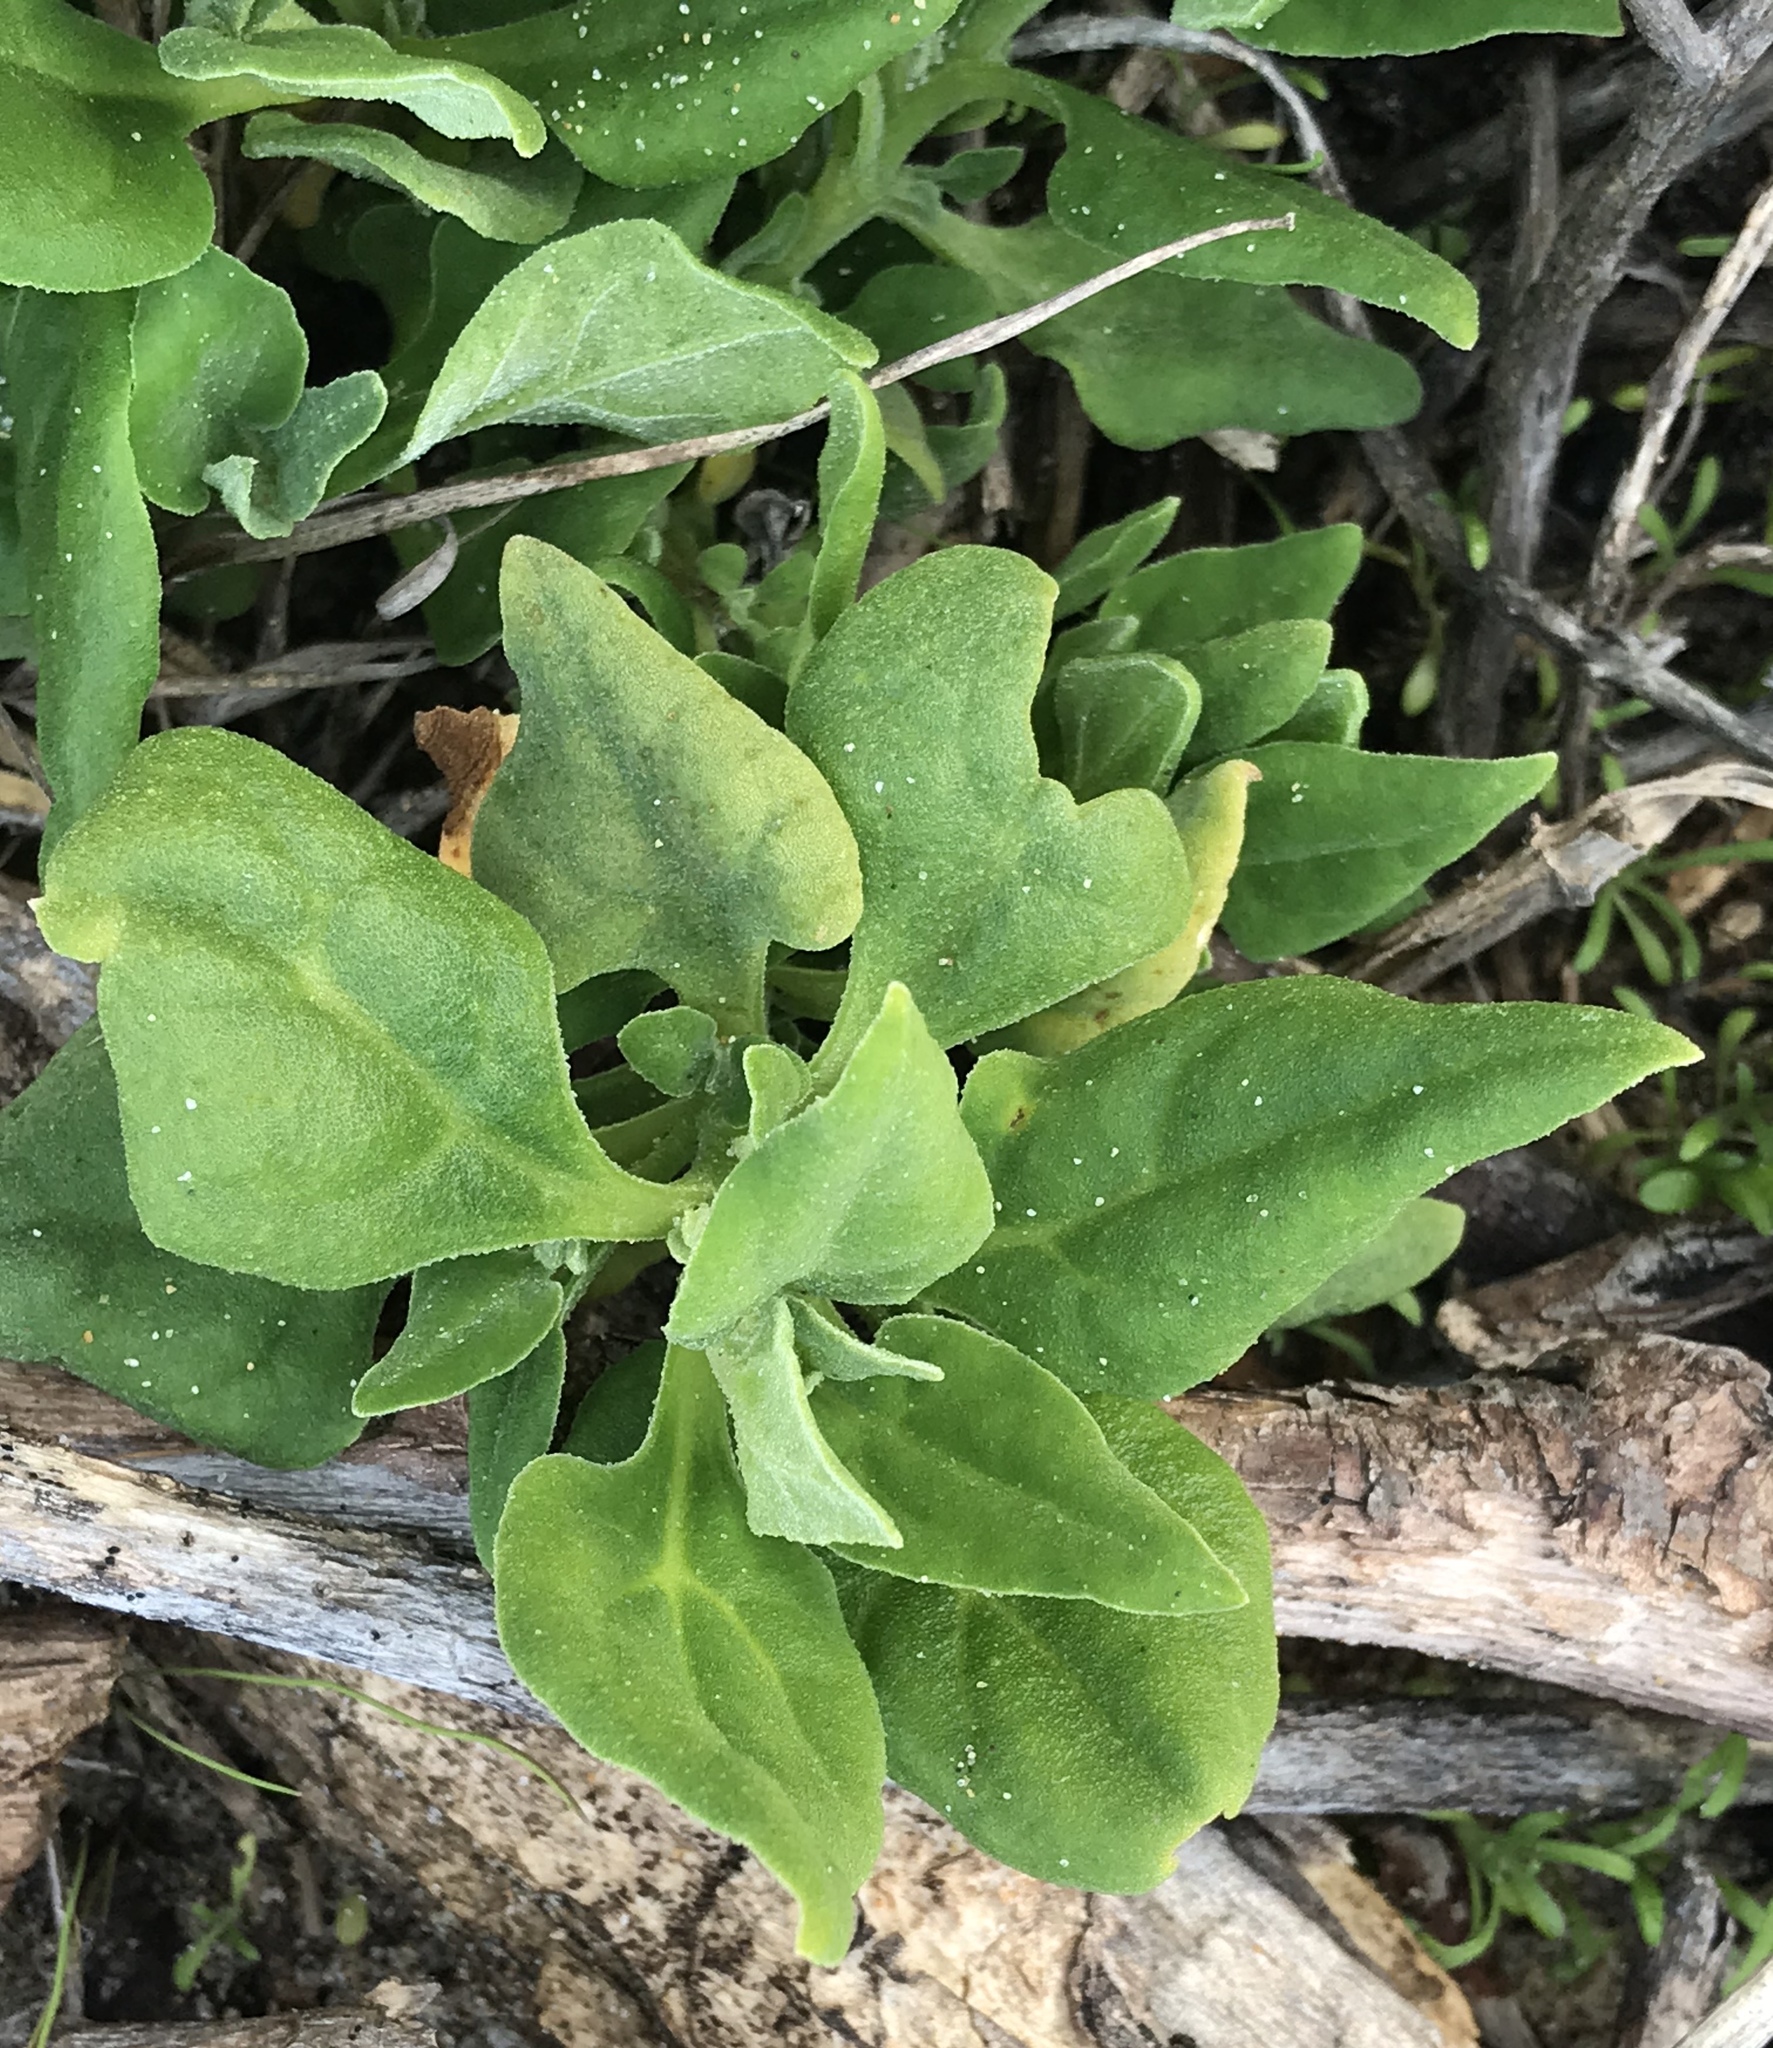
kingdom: Plantae
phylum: Tracheophyta
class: Magnoliopsida
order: Caryophyllales
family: Aizoaceae
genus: Tetragonia
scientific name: Tetragonia tetragonoides
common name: New zealand-spinach
